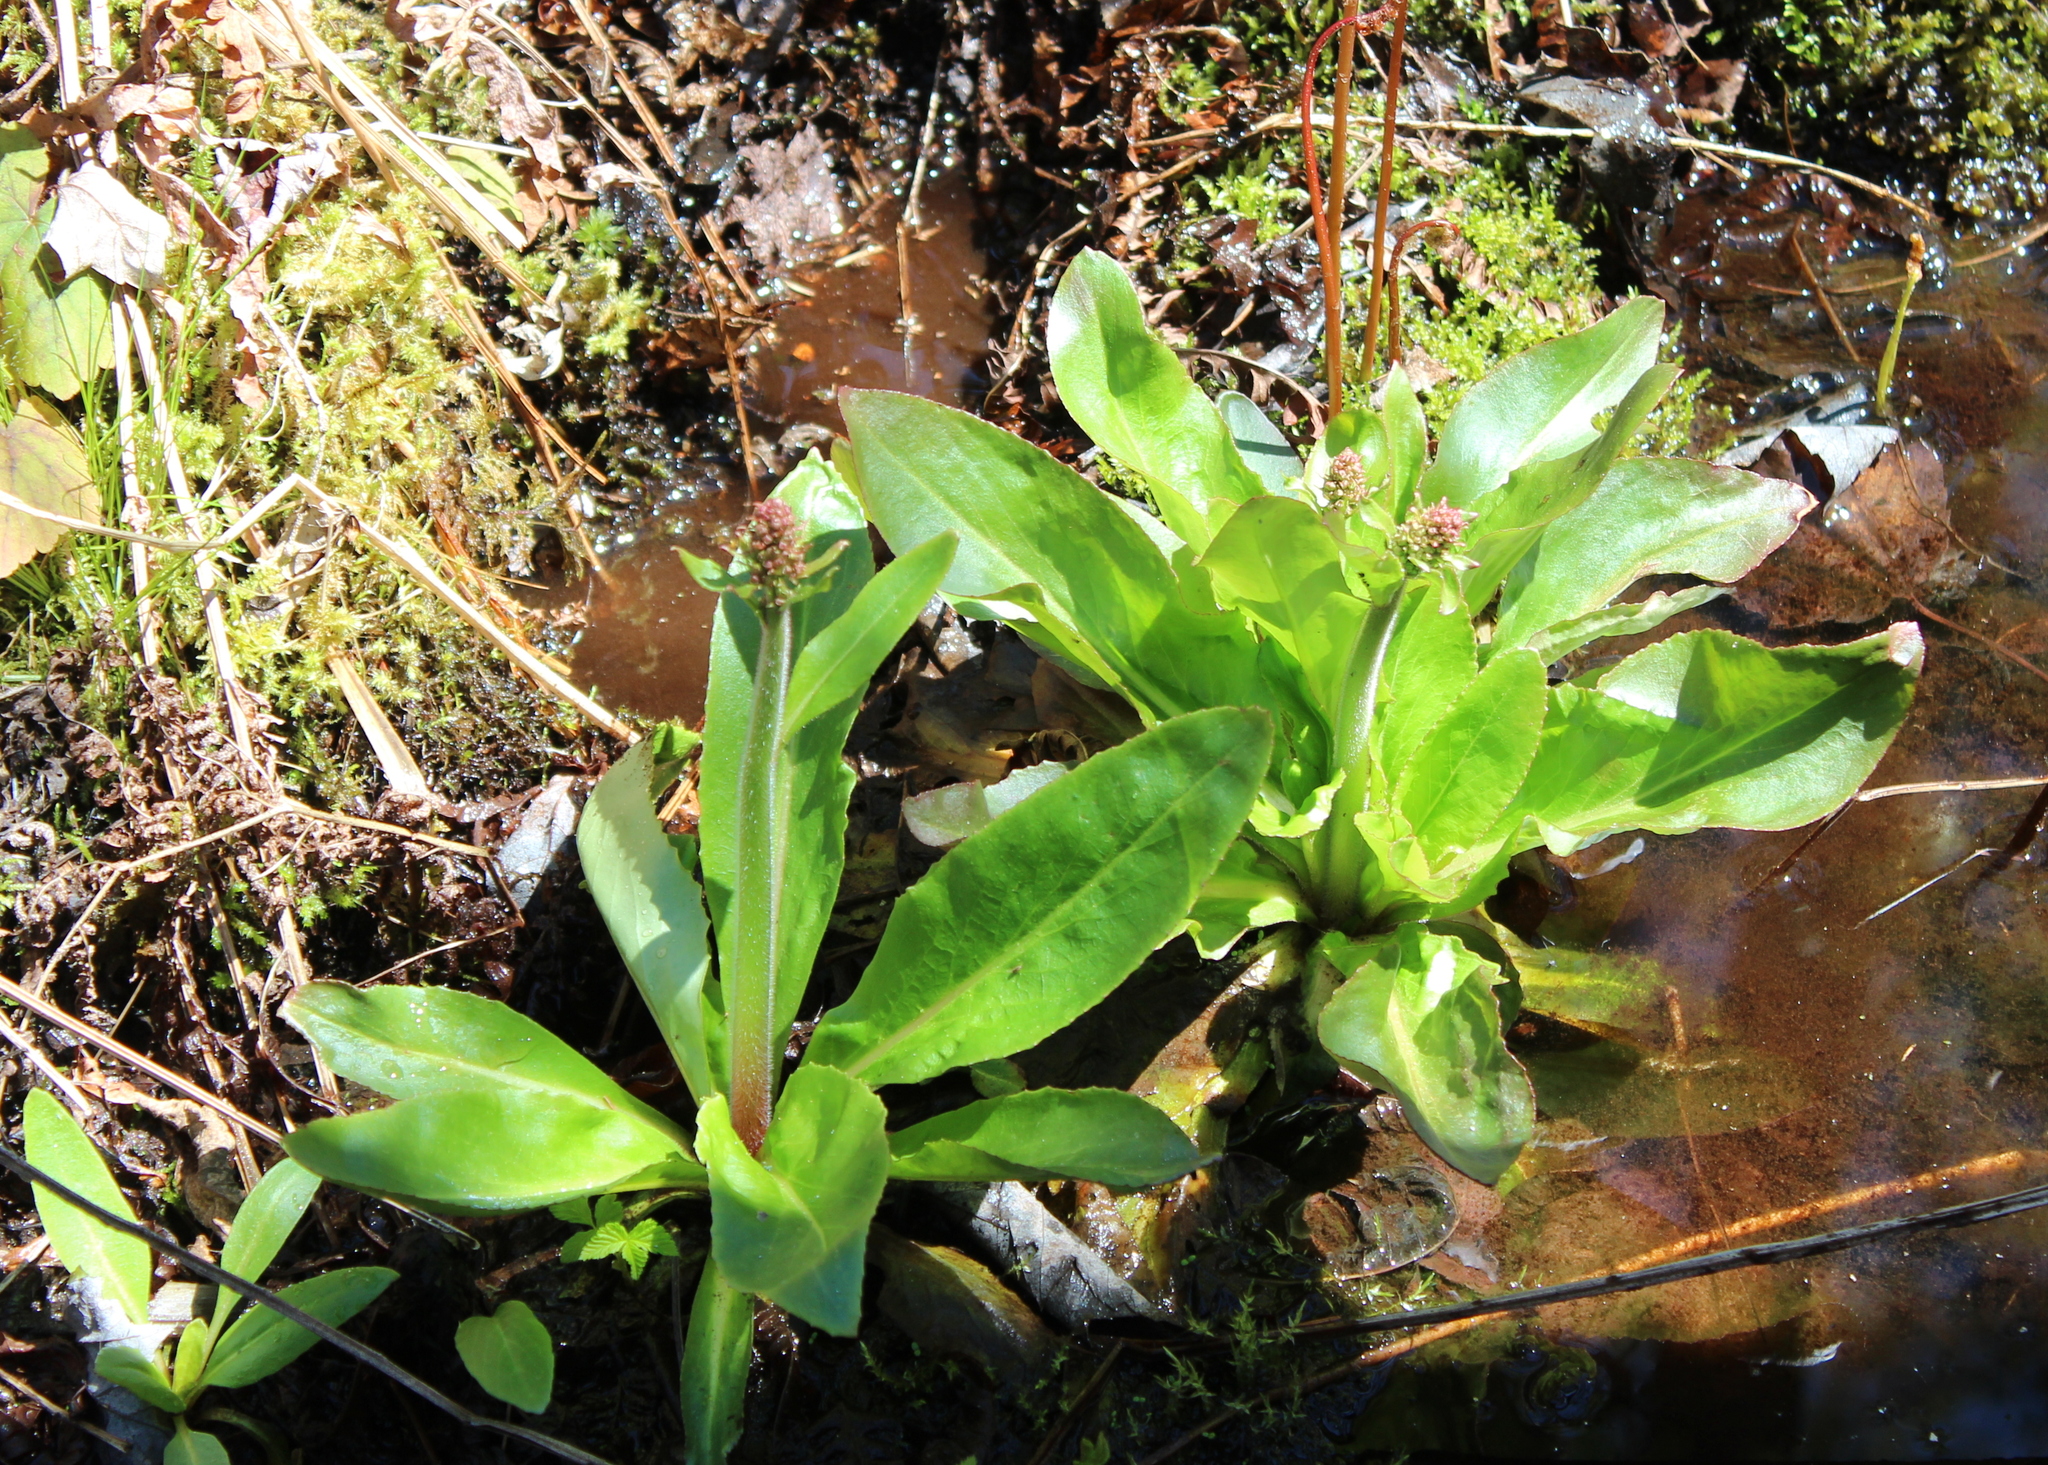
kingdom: Plantae
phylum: Tracheophyta
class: Magnoliopsida
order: Saxifragales
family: Saxifragaceae
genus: Micranthes
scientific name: Micranthes pensylvanica
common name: Marsh saxifrage
